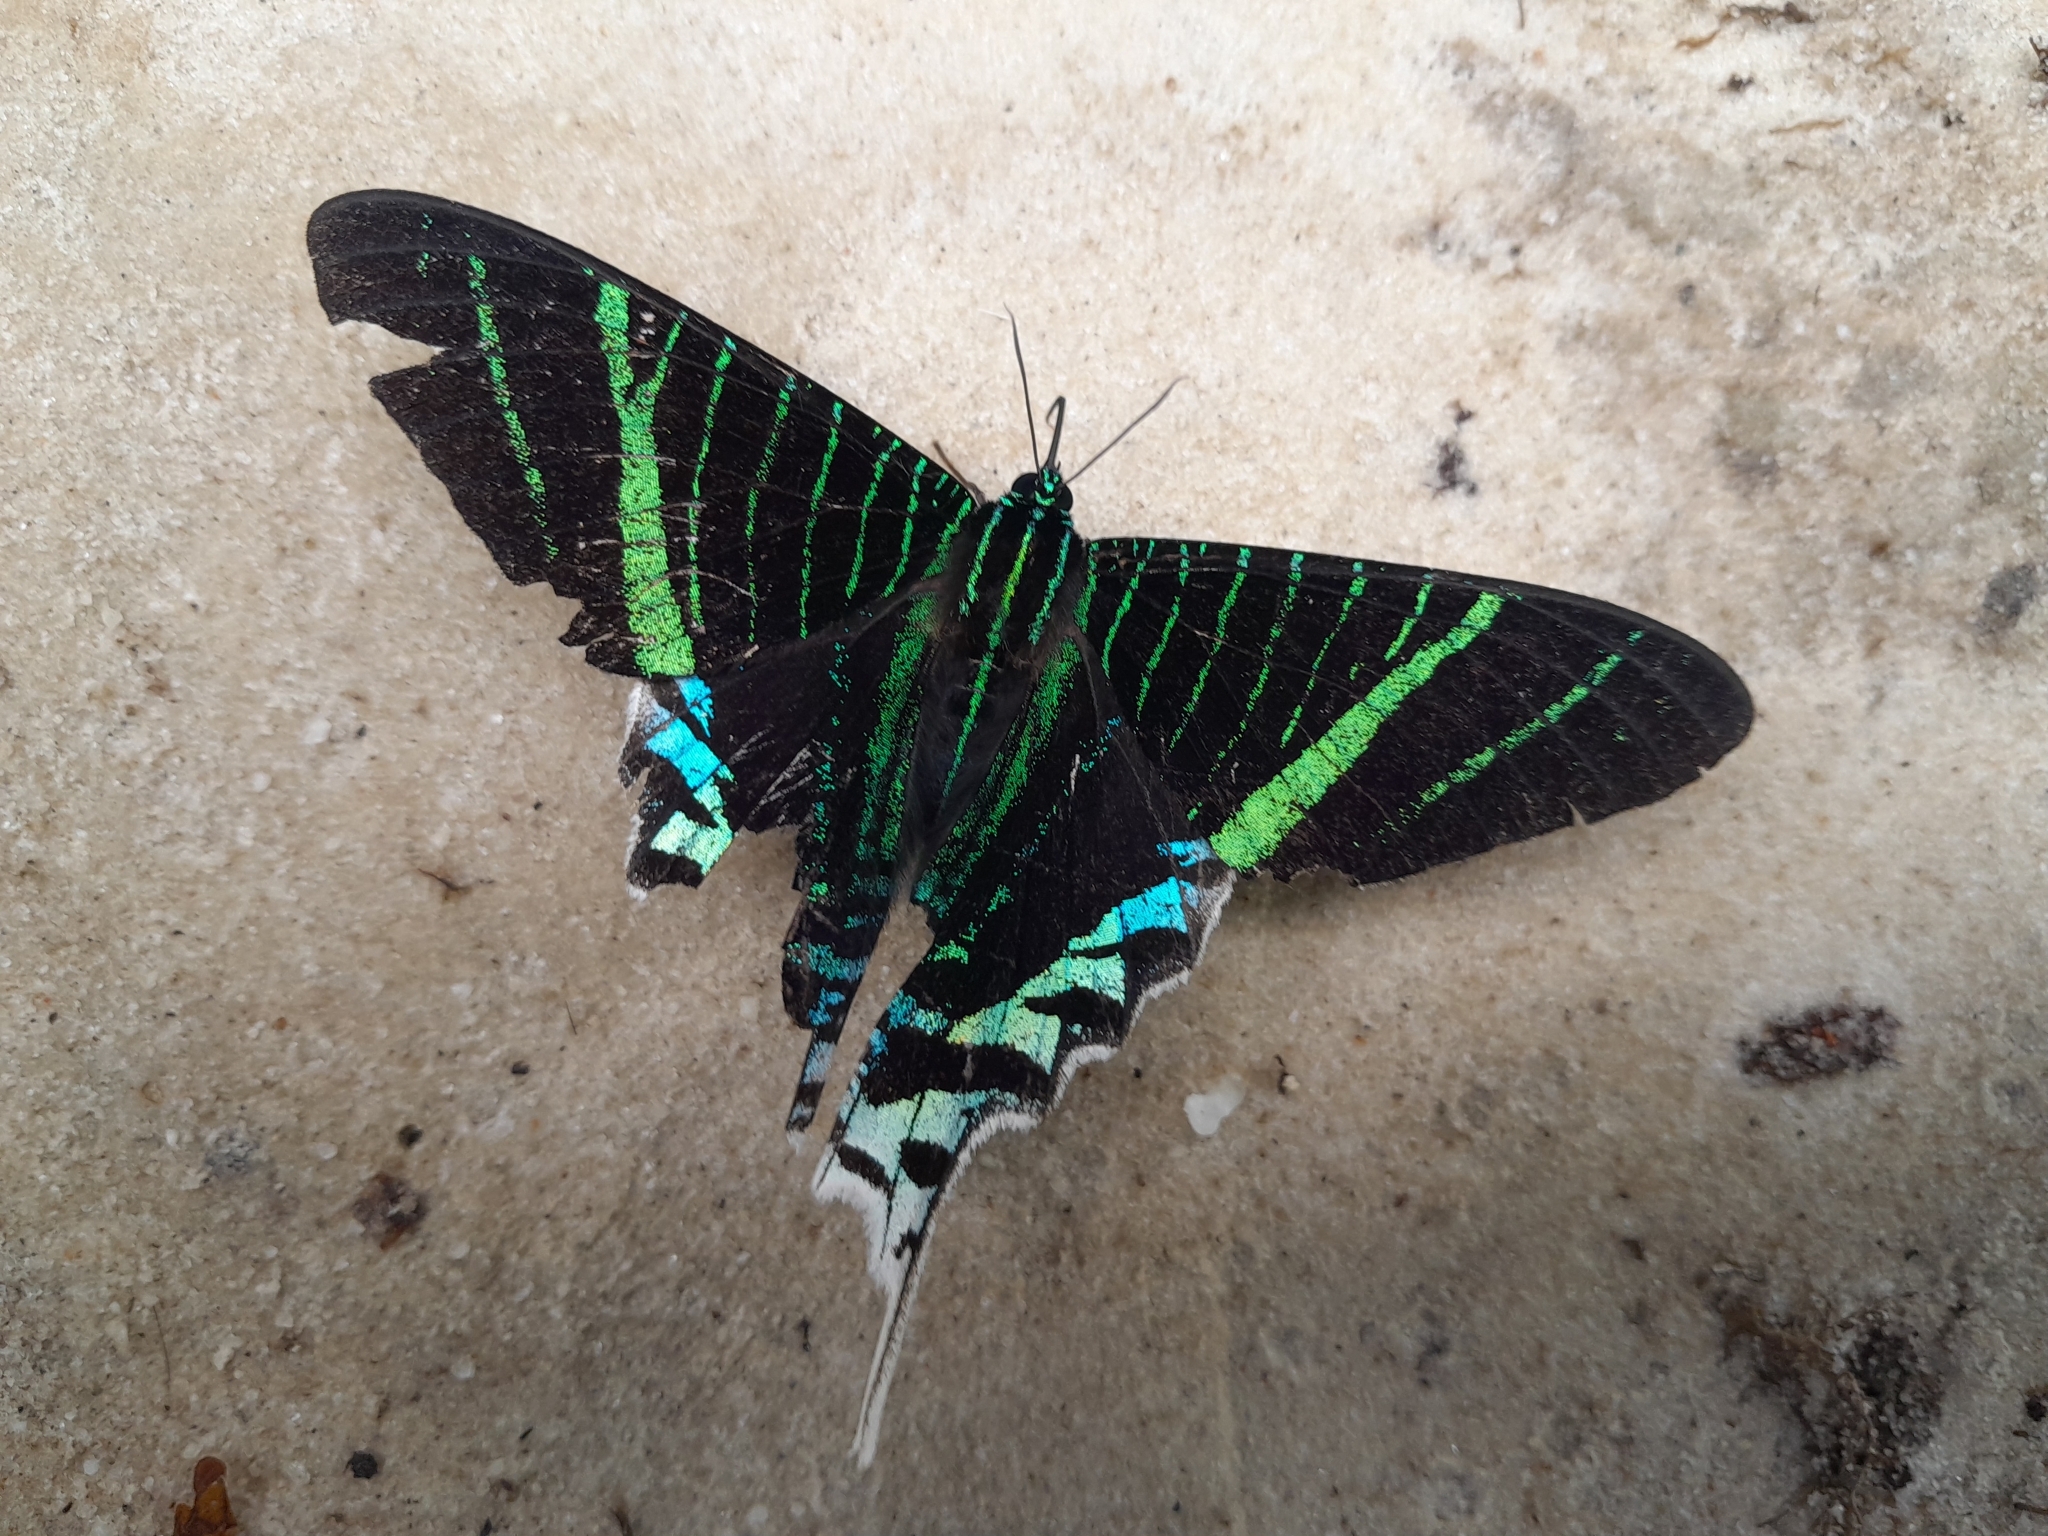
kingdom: Animalia
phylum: Arthropoda
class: Insecta
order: Lepidoptera
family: Uraniidae
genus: Urania
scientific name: Urania leilus
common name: Peacock moth
